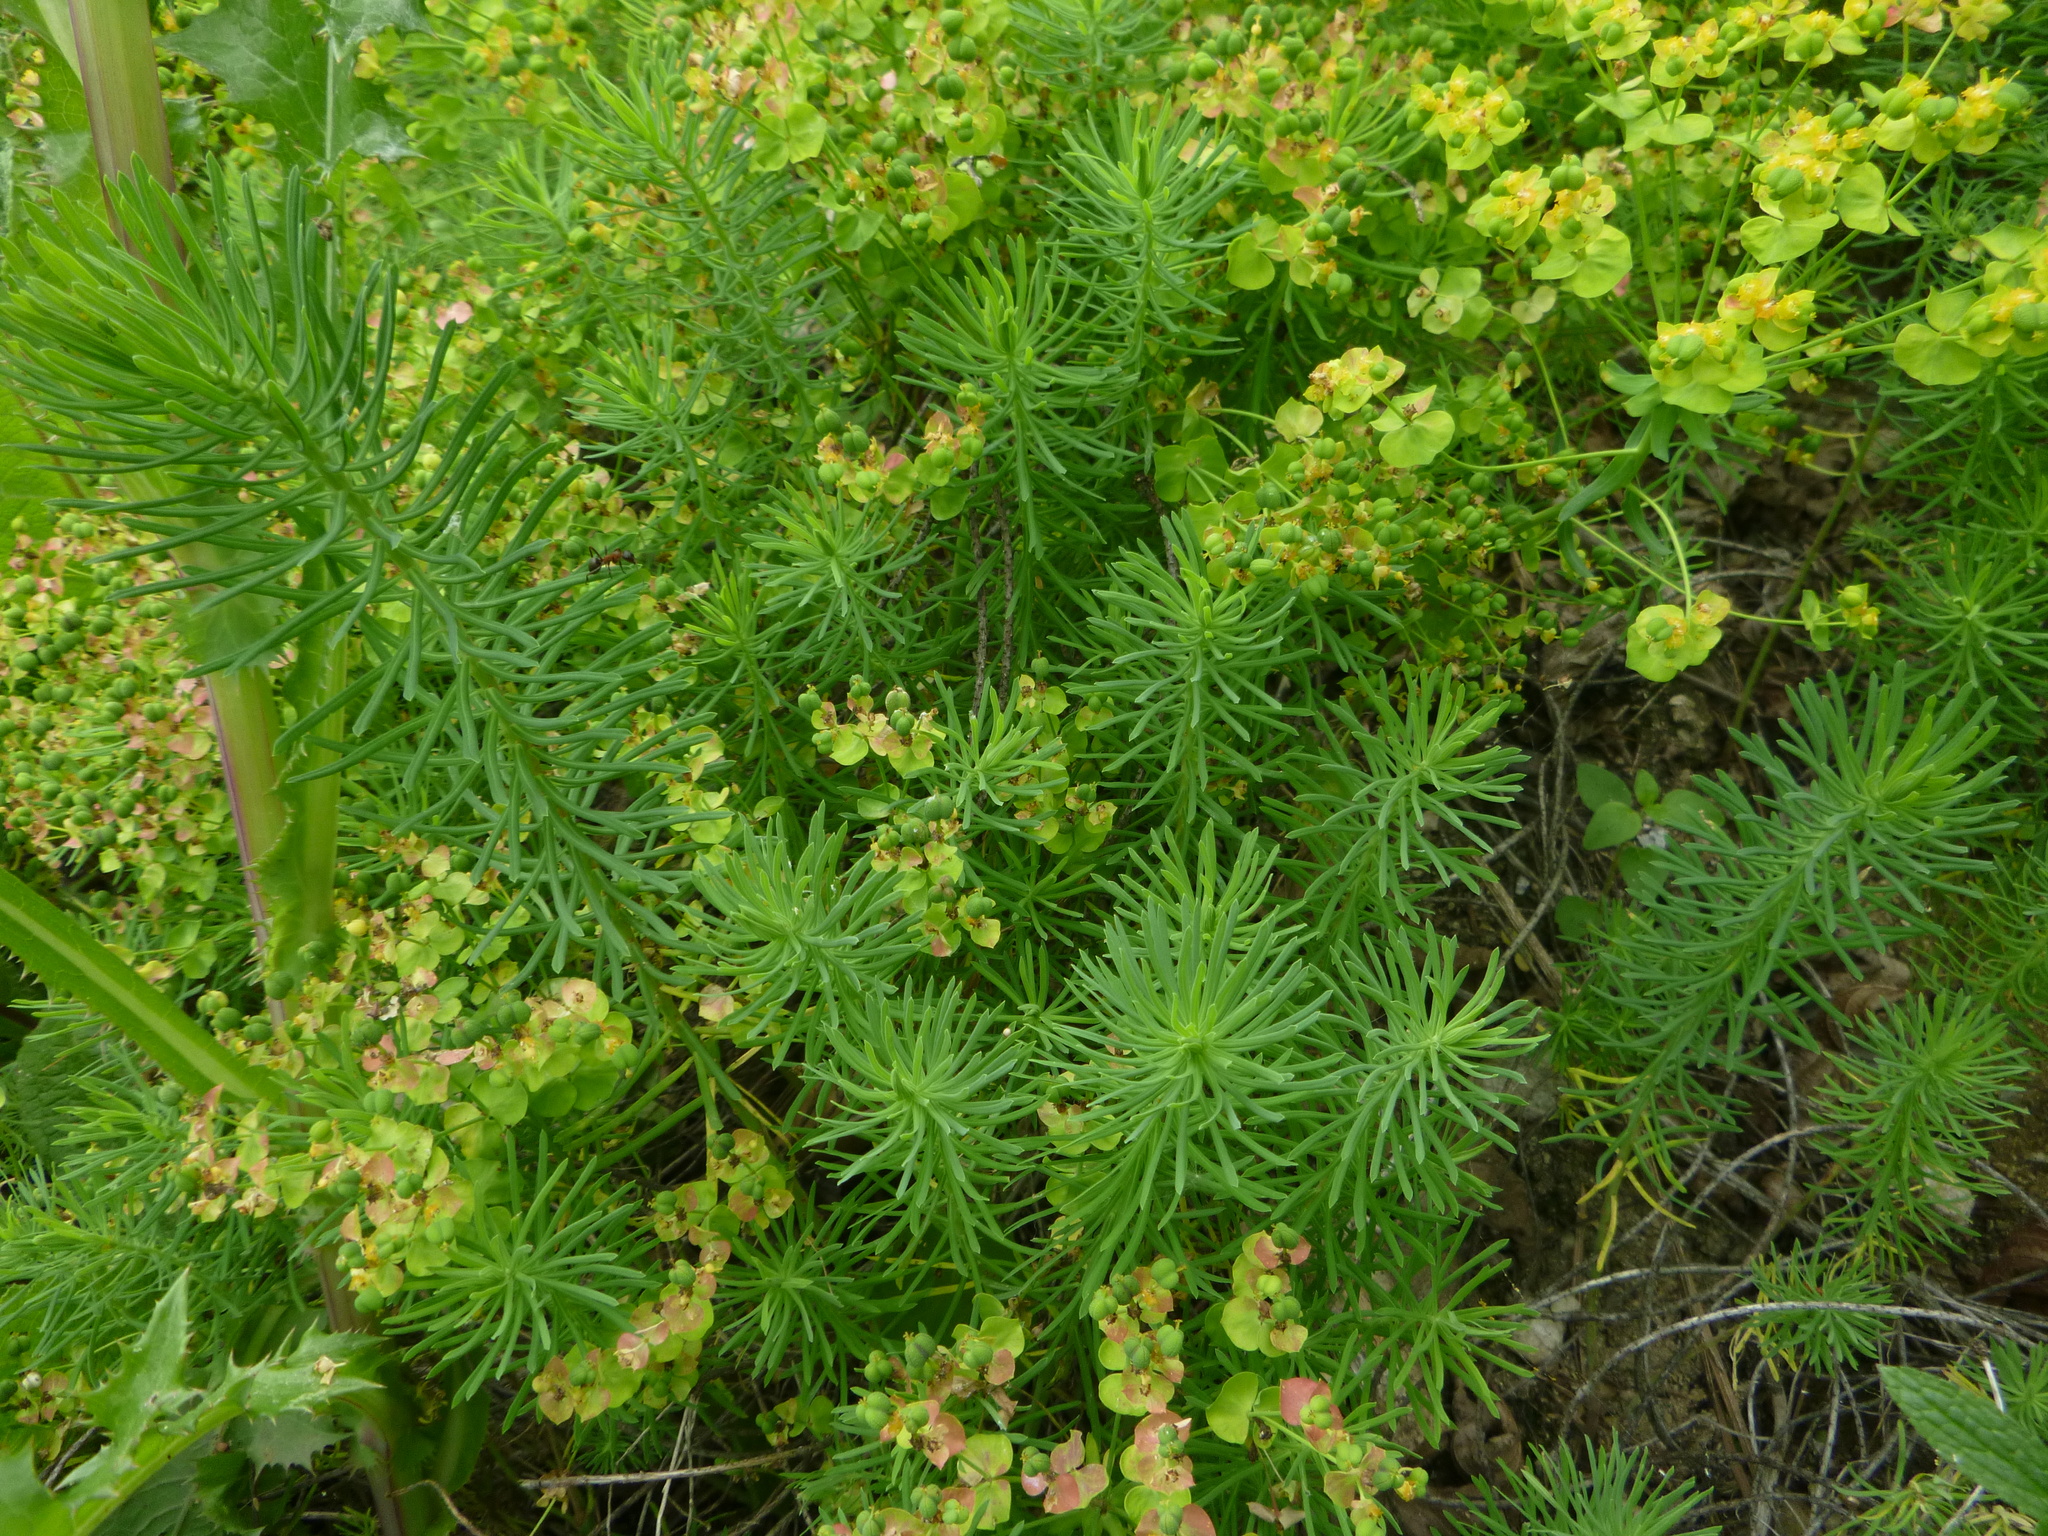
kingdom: Plantae
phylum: Tracheophyta
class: Magnoliopsida
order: Malpighiales
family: Euphorbiaceae
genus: Euphorbia
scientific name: Euphorbia cyparissias
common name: Cypress spurge
